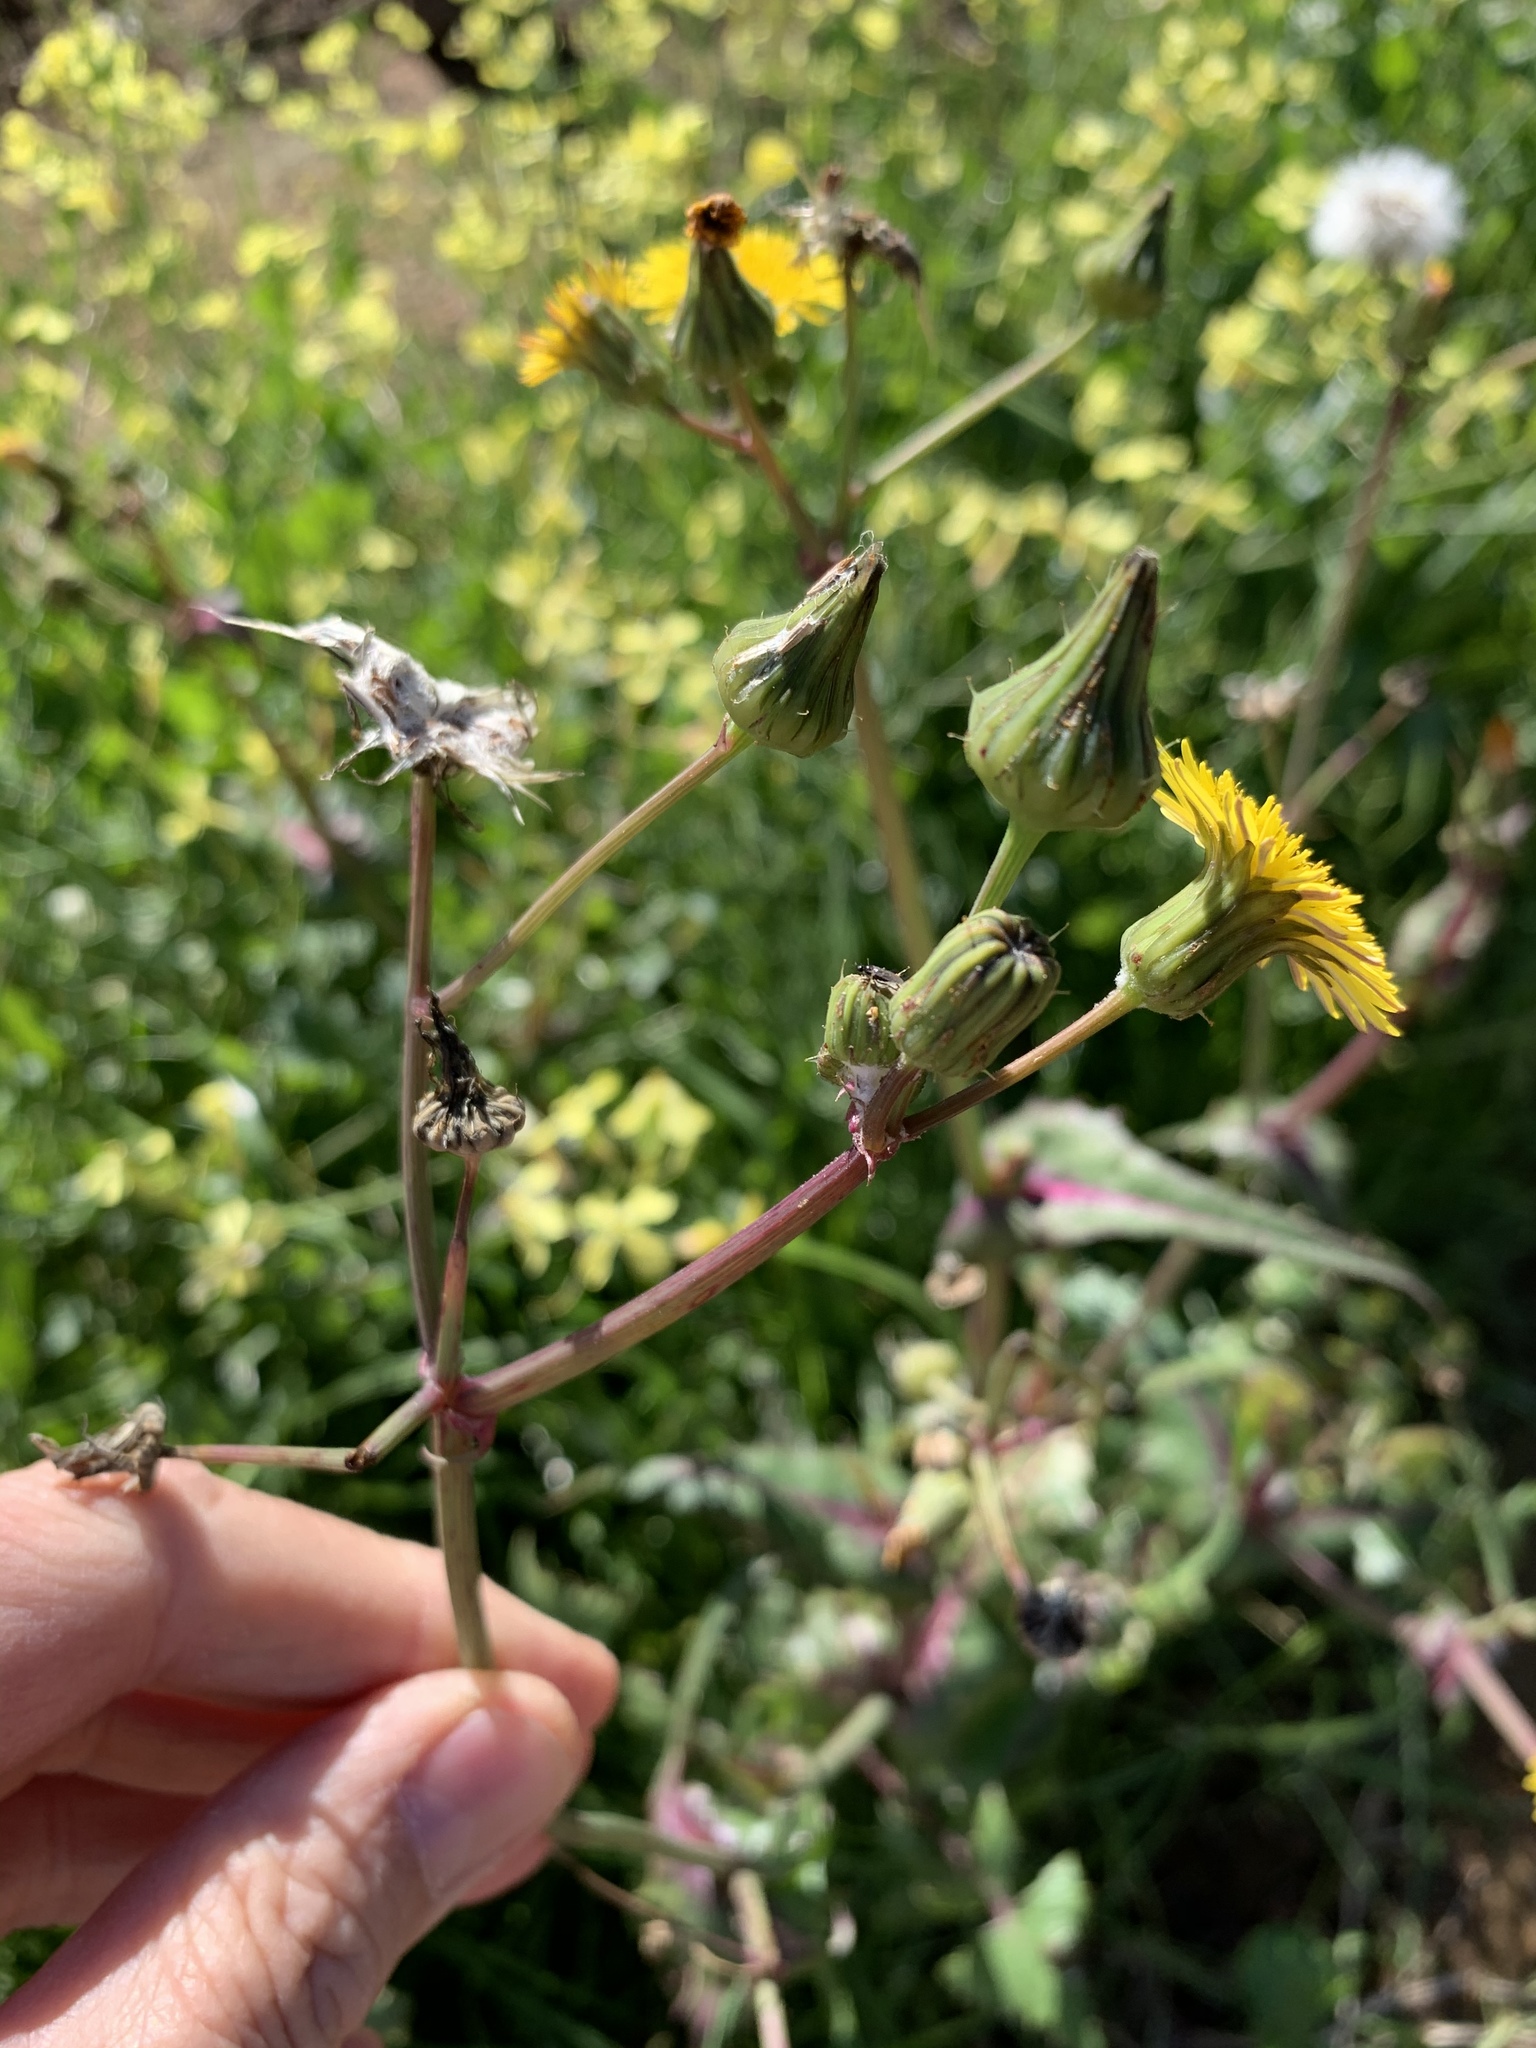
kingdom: Plantae
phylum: Tracheophyta
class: Magnoliopsida
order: Asterales
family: Asteraceae
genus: Sonchus
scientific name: Sonchus oleraceus
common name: Common sowthistle
